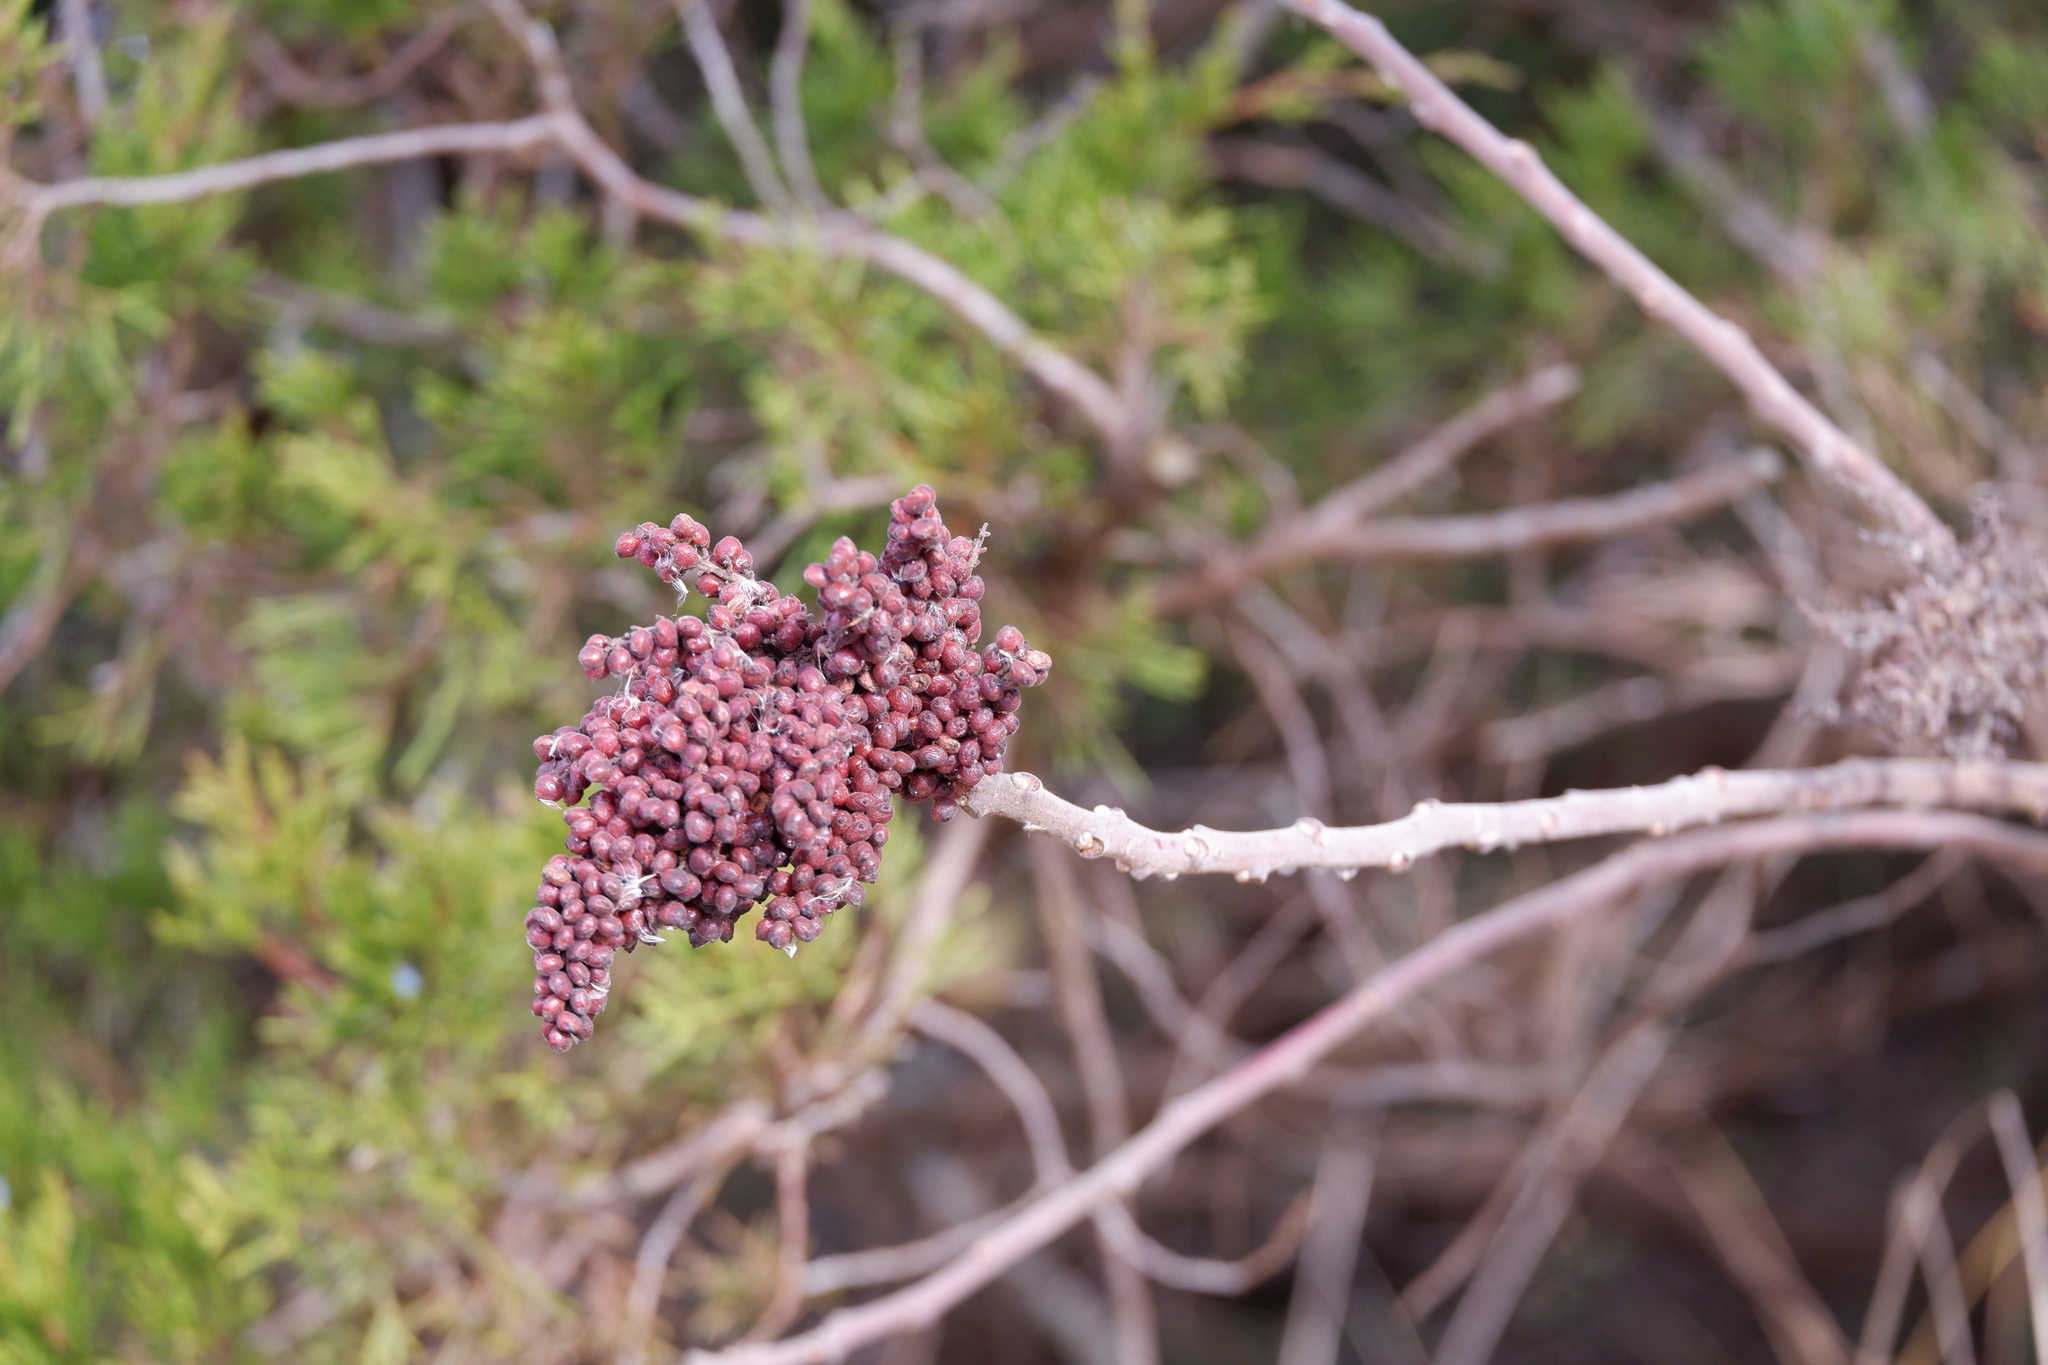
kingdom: Plantae
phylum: Tracheophyta
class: Magnoliopsida
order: Sapindales
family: Anacardiaceae
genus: Rhus
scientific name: Rhus copallina
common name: Shining sumac
